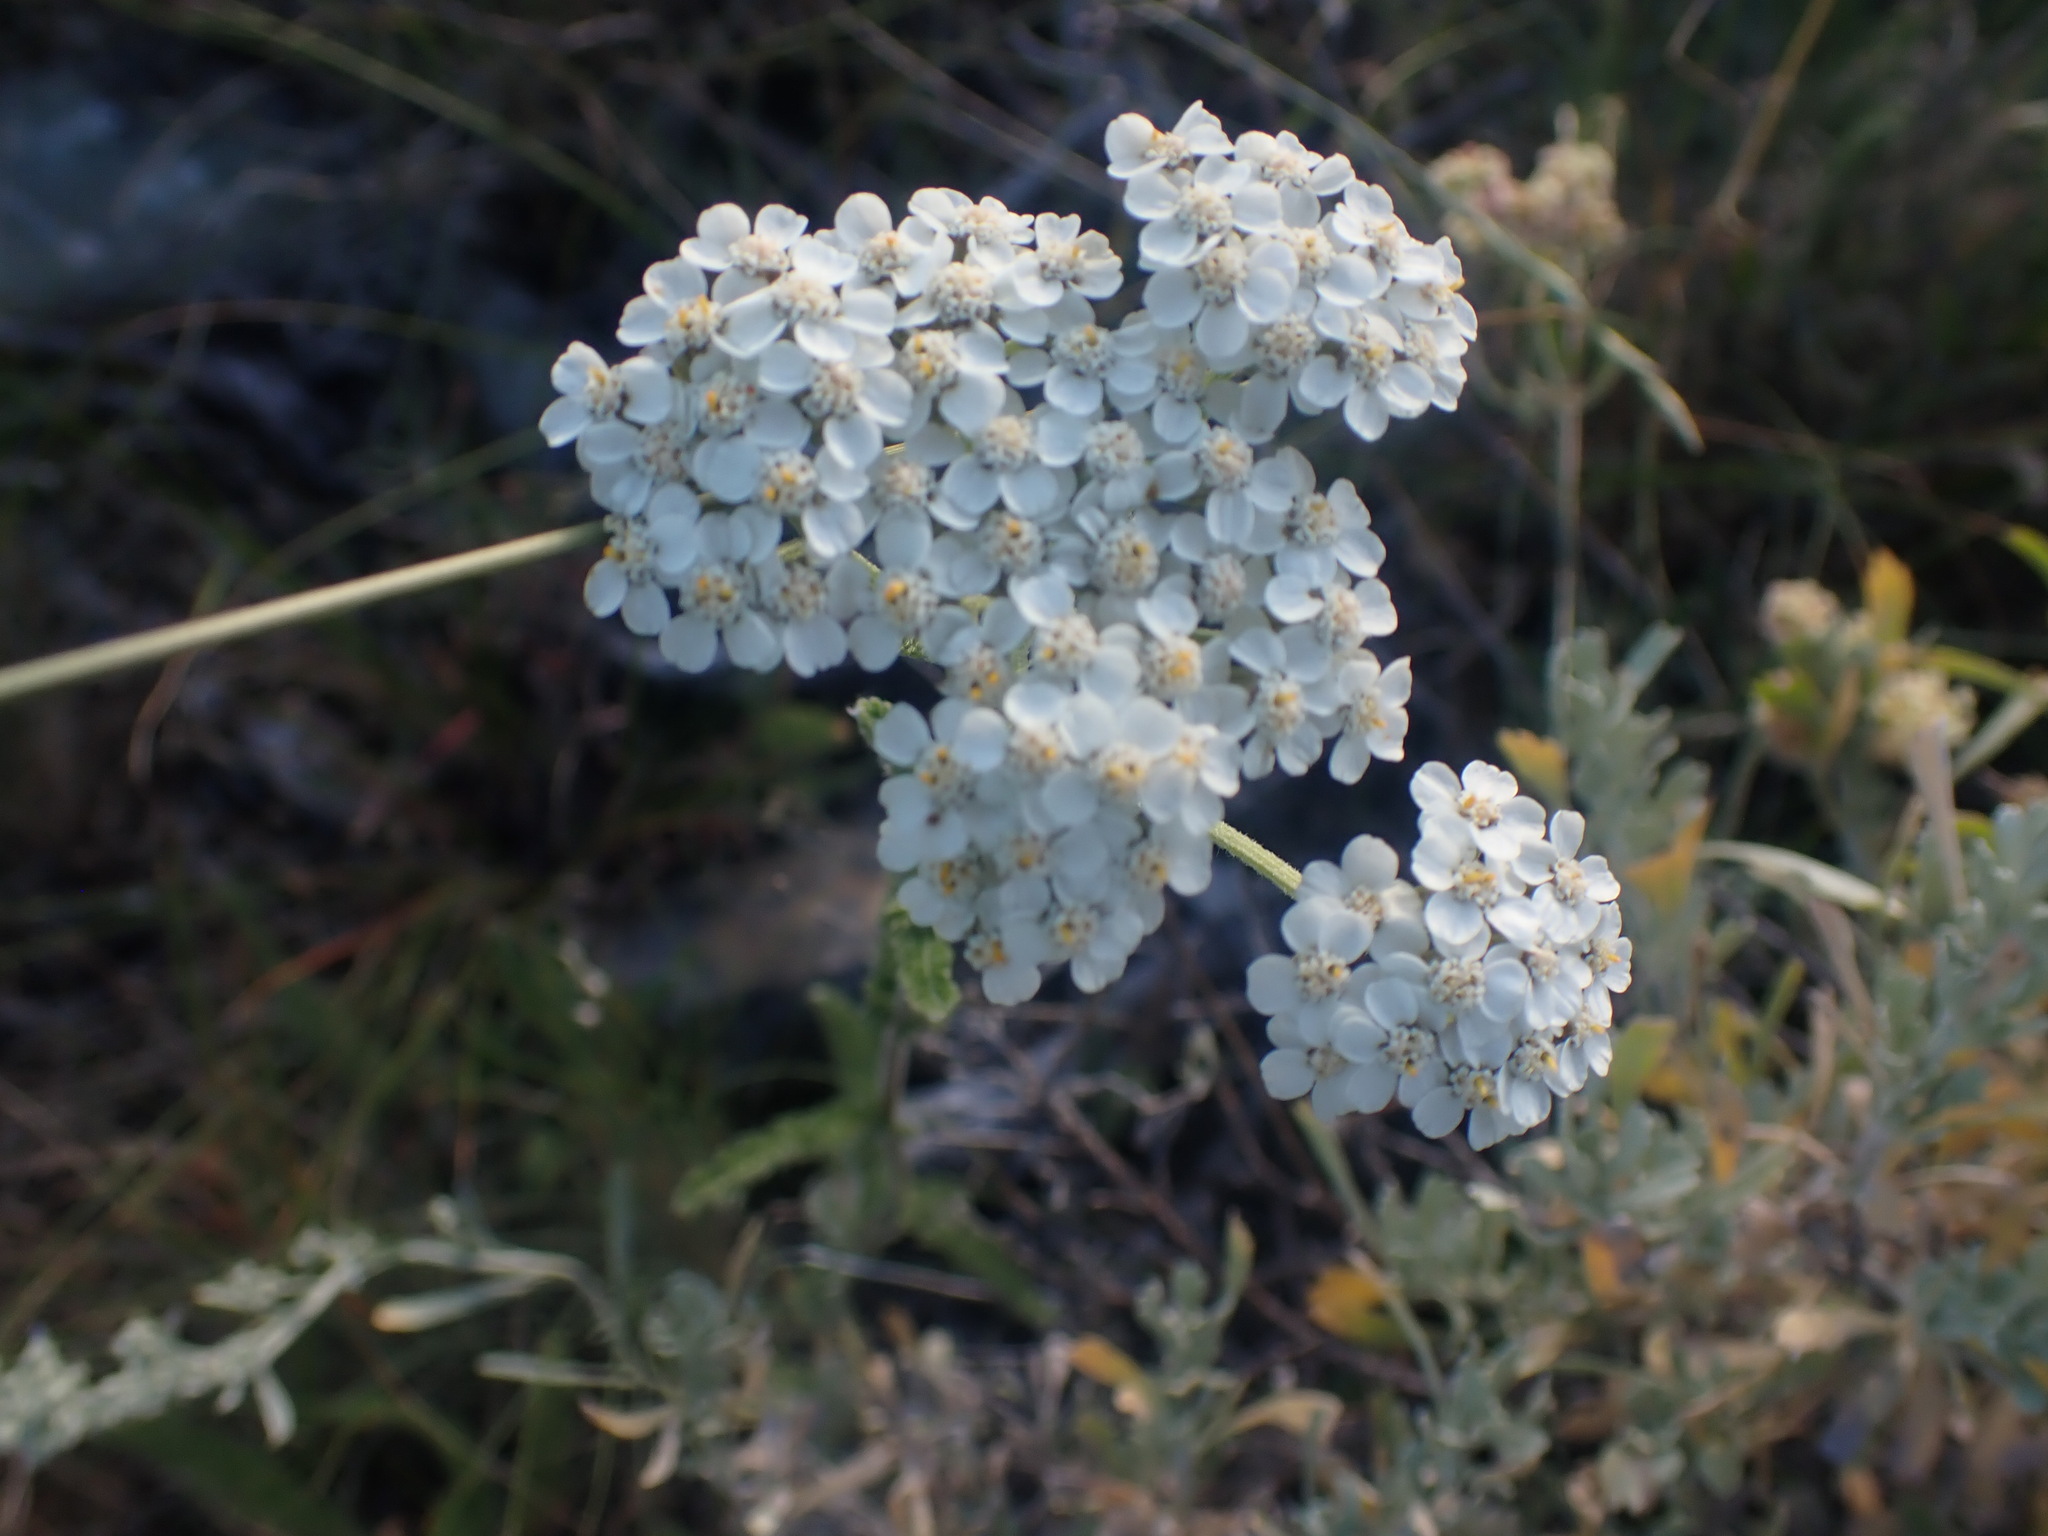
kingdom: Plantae
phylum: Tracheophyta
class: Magnoliopsida
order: Asterales
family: Asteraceae
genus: Achillea
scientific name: Achillea millefolium
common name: Yarrow
